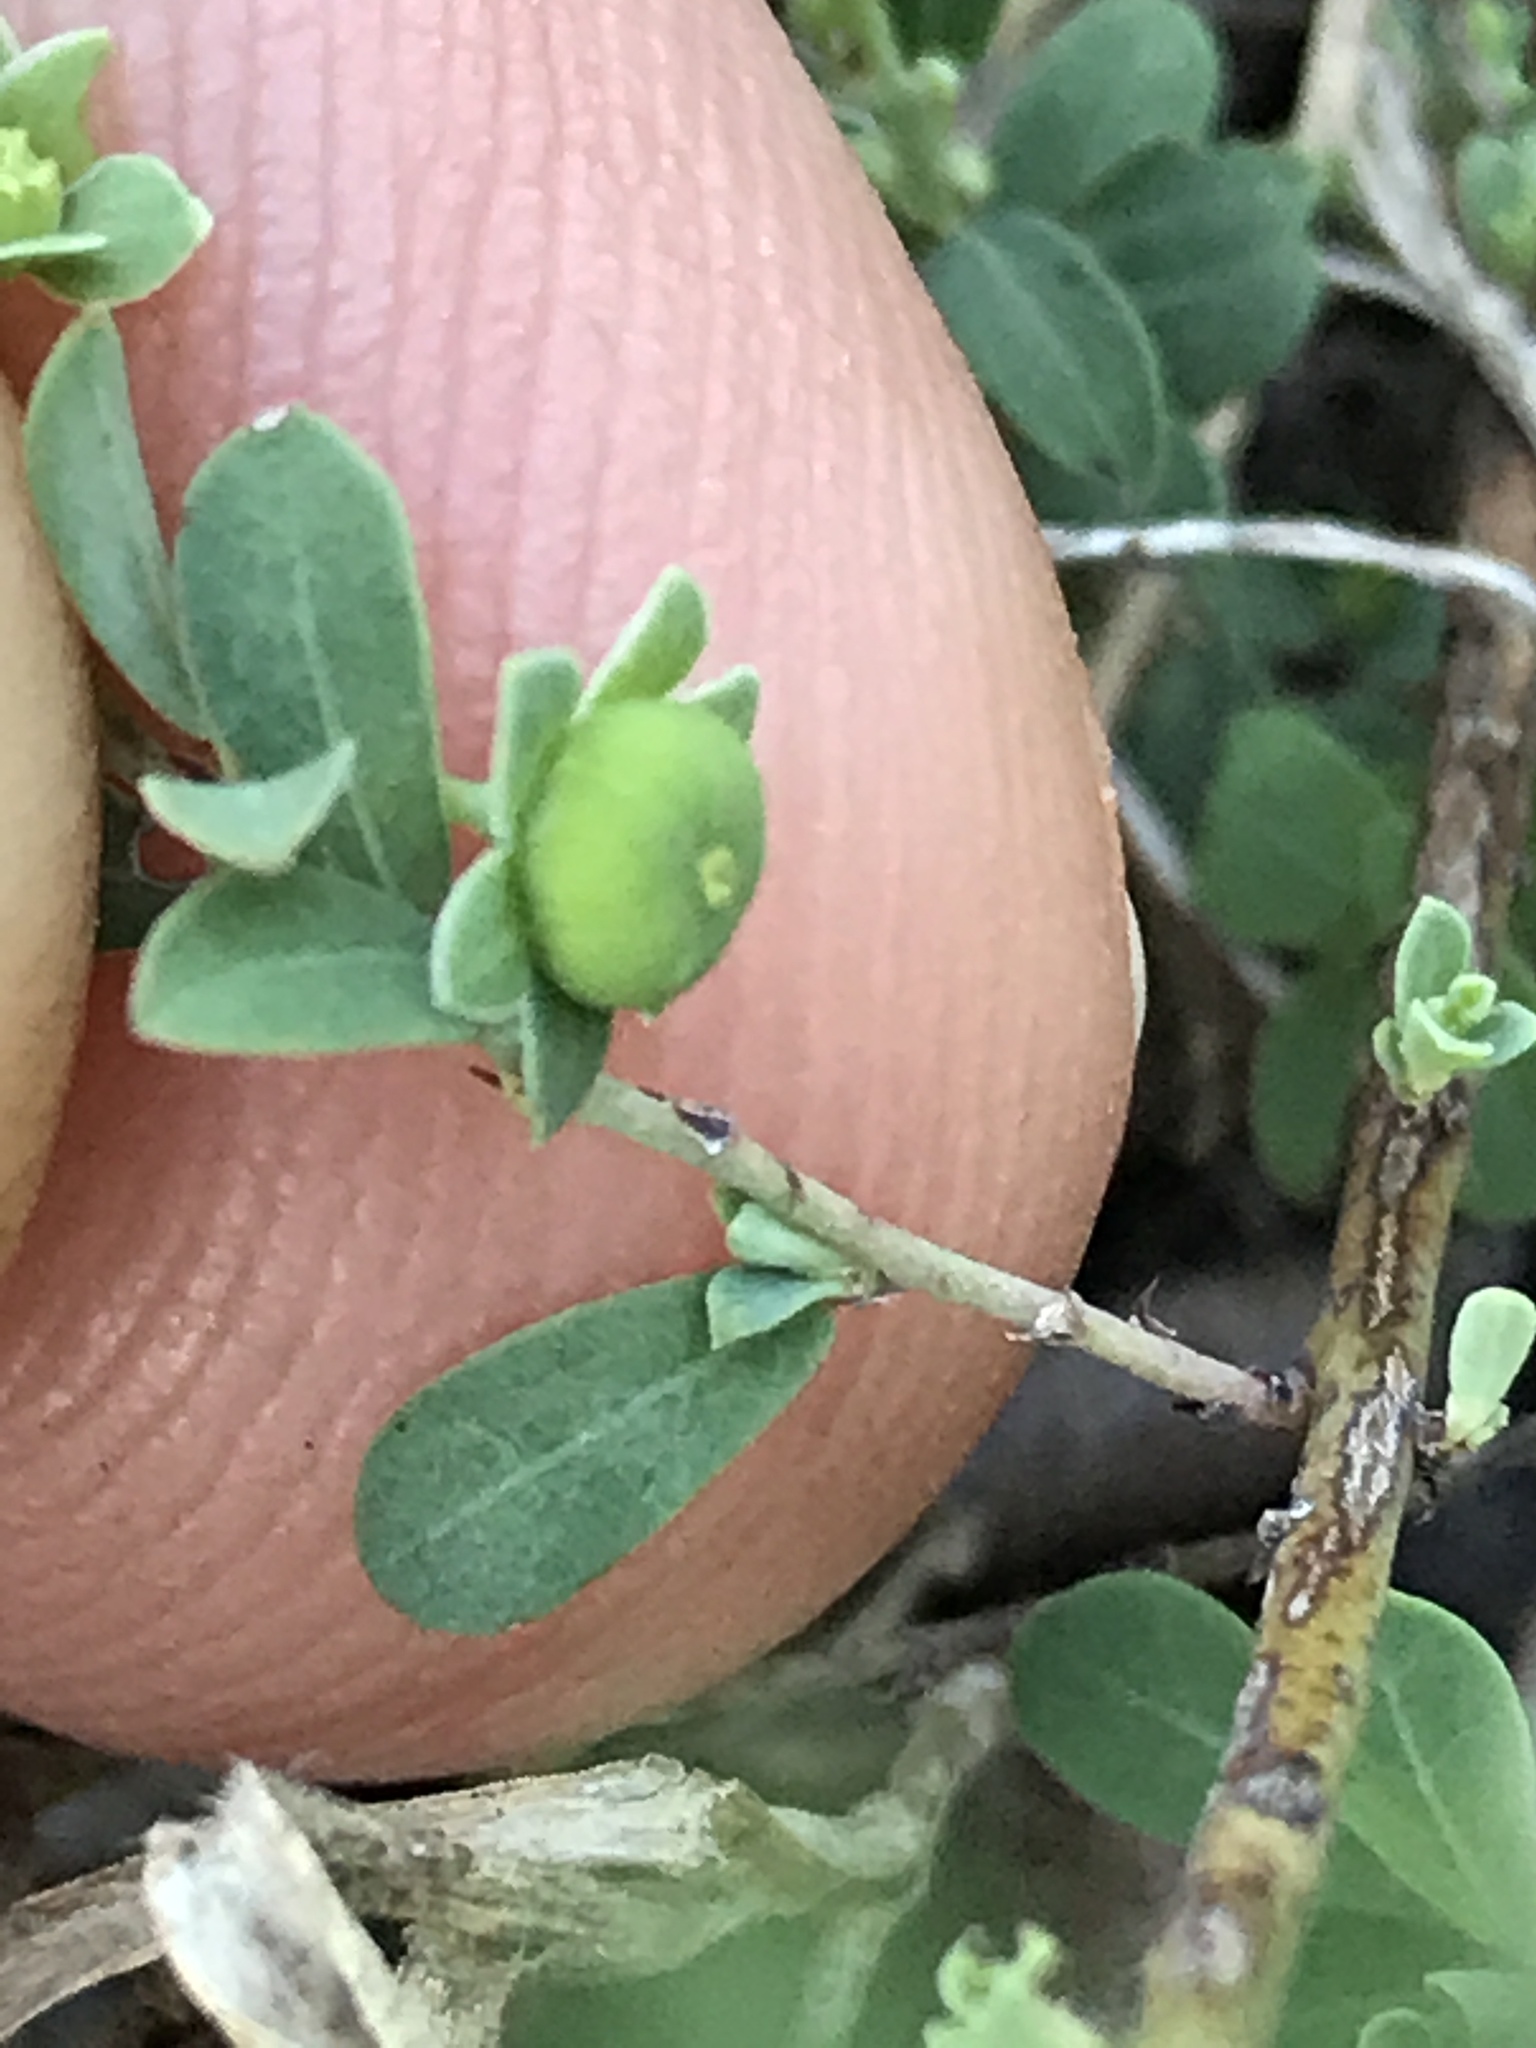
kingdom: Plantae
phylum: Tracheophyta
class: Magnoliopsida
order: Malpighiales
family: Phyllanthaceae
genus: Phyllanthus
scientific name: Phyllanthus polygonoides
